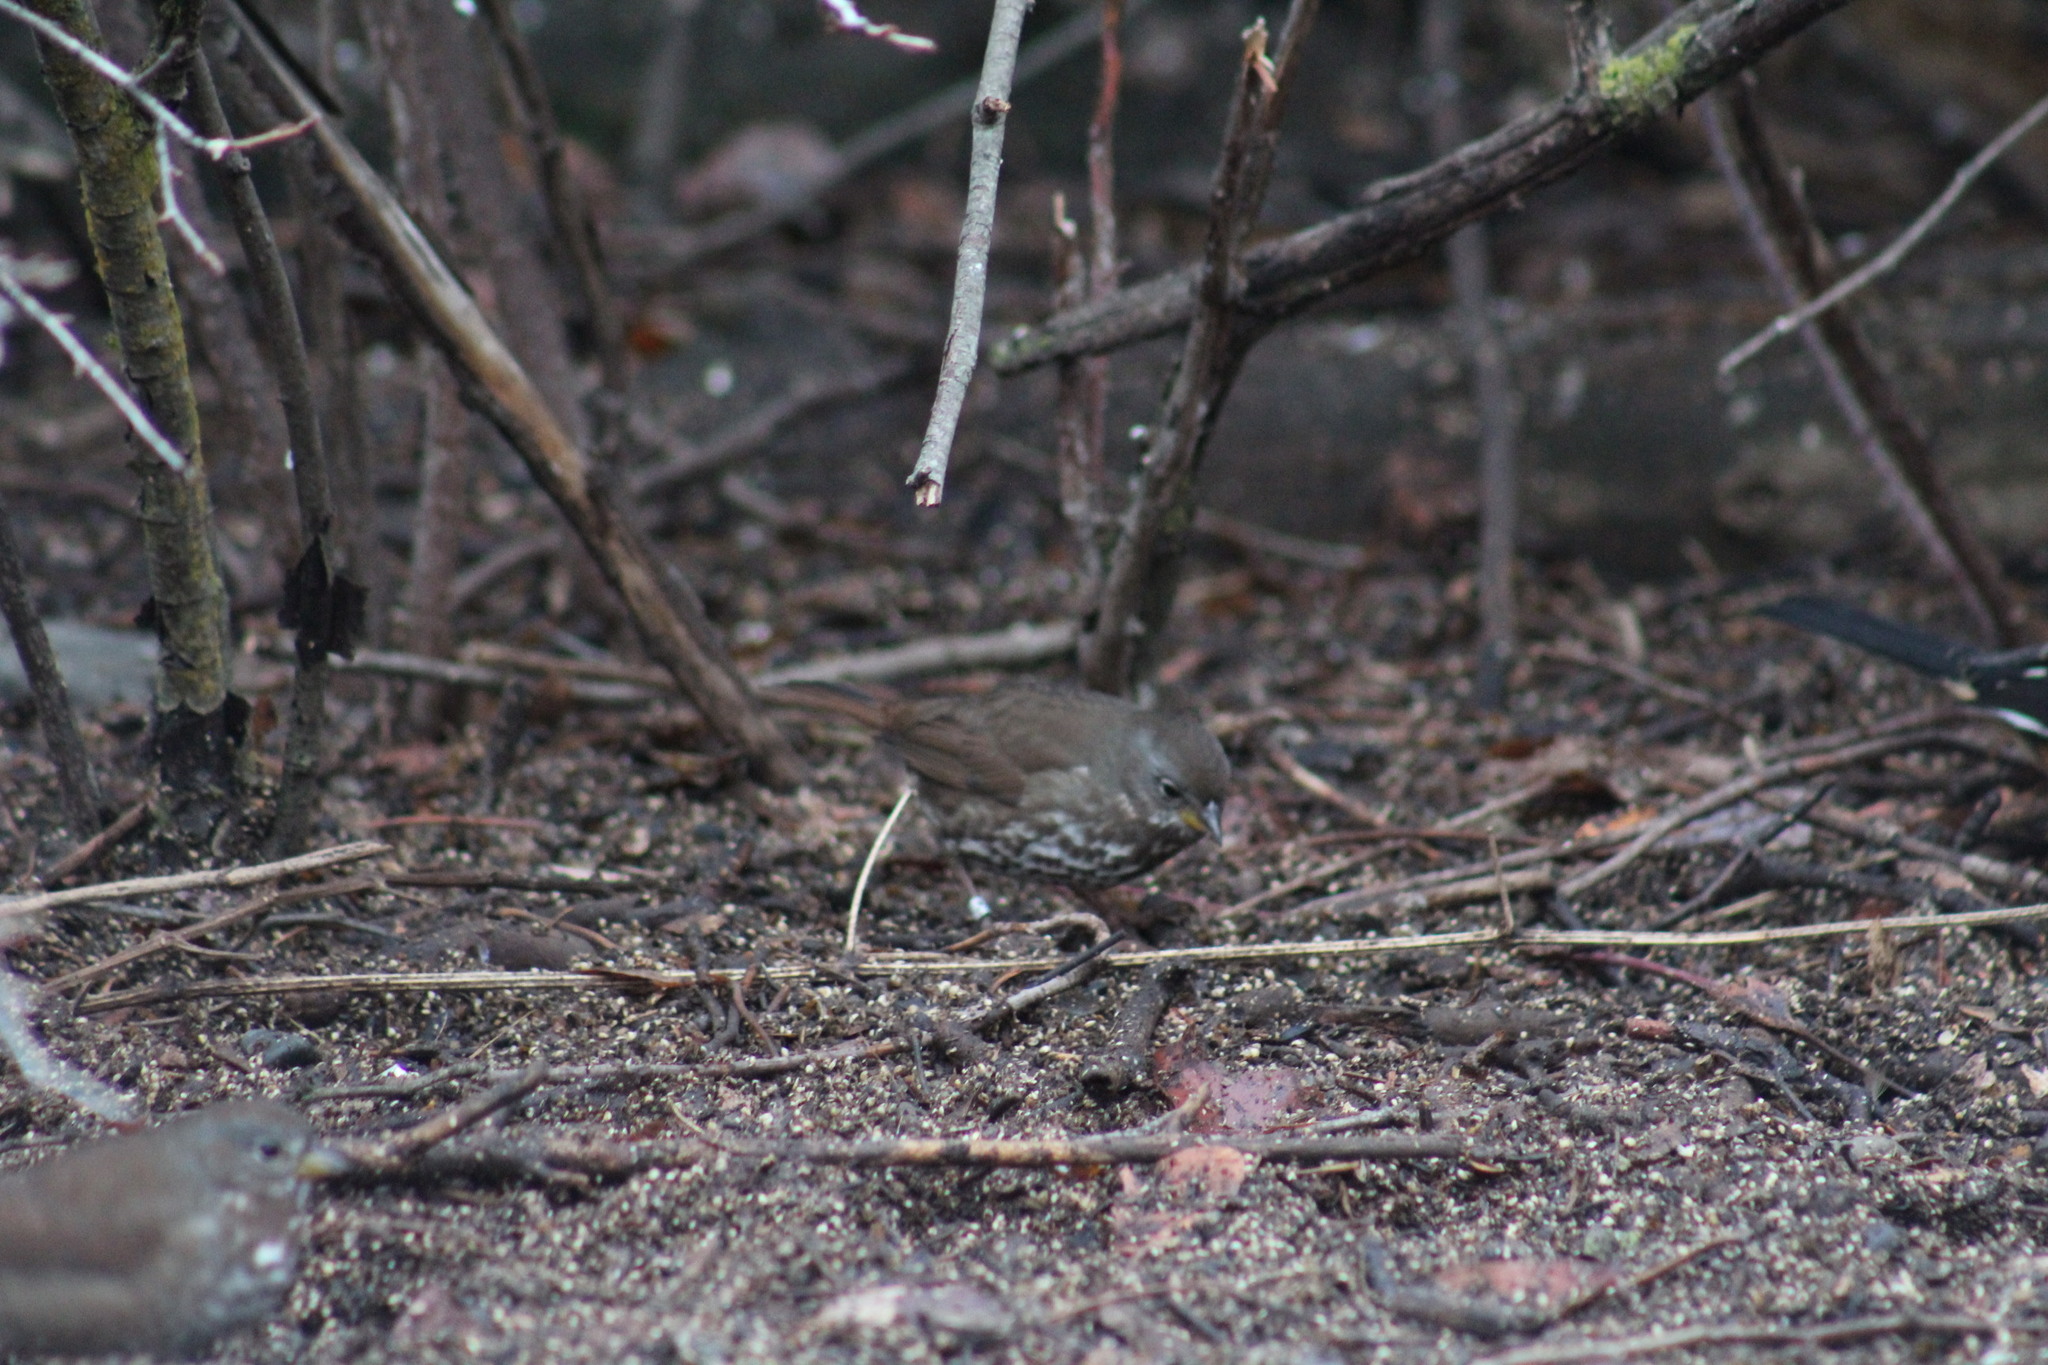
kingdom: Animalia
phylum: Chordata
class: Aves
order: Passeriformes
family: Passerellidae
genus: Passerella
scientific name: Passerella iliaca
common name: Fox sparrow
